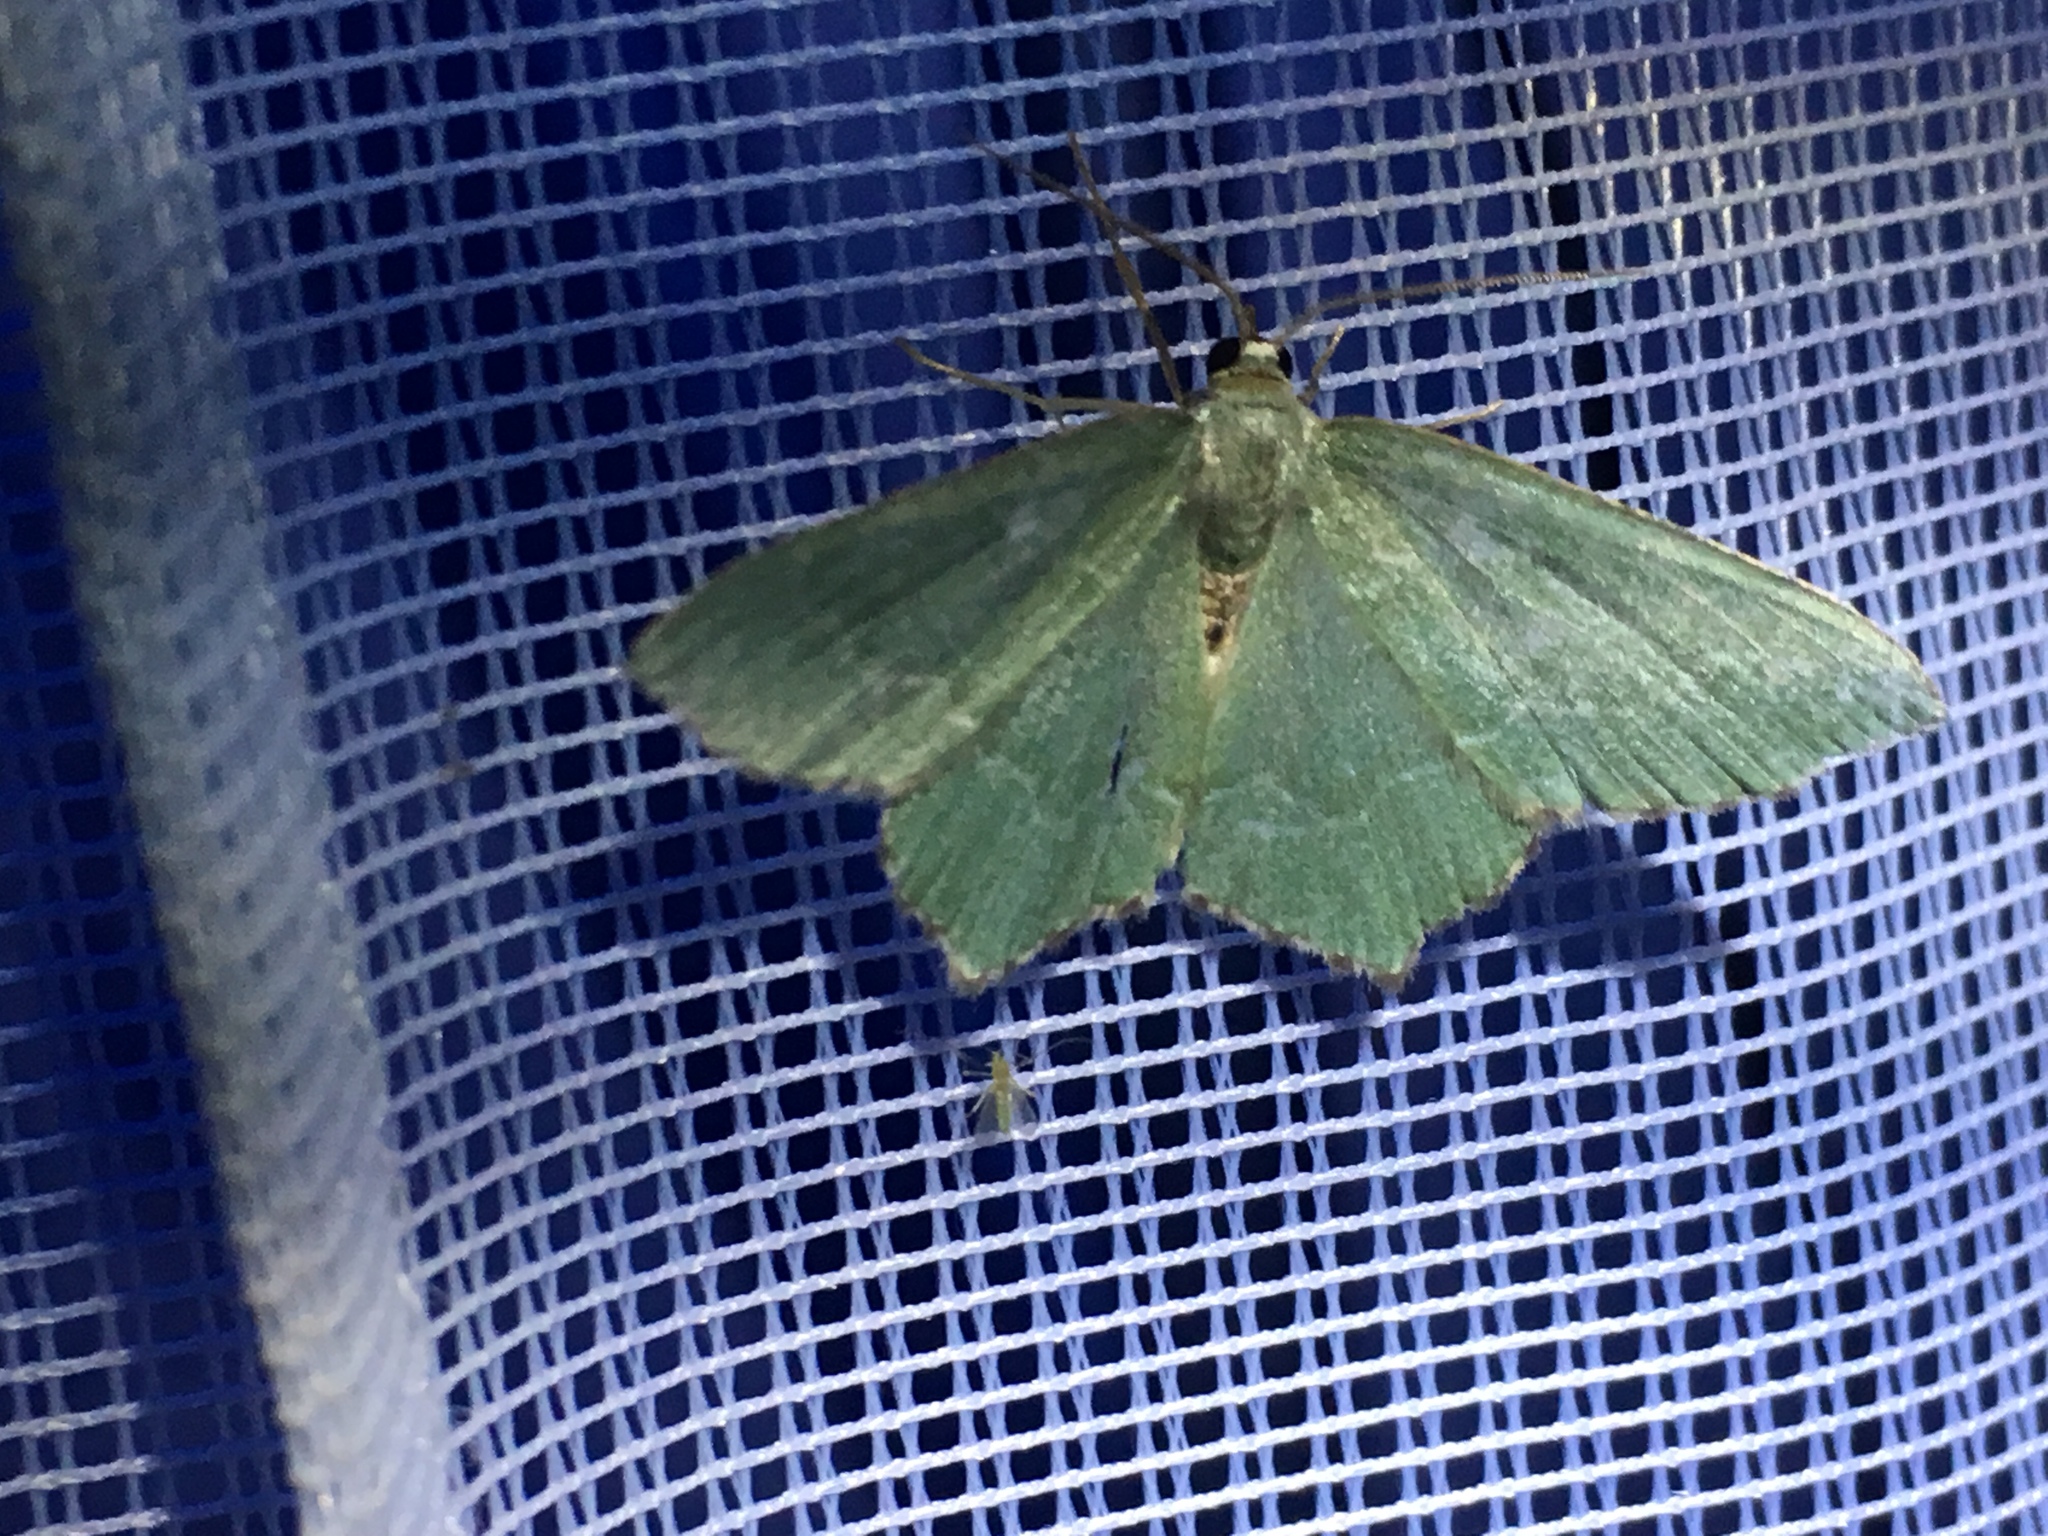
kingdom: Animalia
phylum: Arthropoda
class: Insecta
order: Lepidoptera
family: Geometridae
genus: Hemithea
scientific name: Hemithea aestivaria
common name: Common emerald
